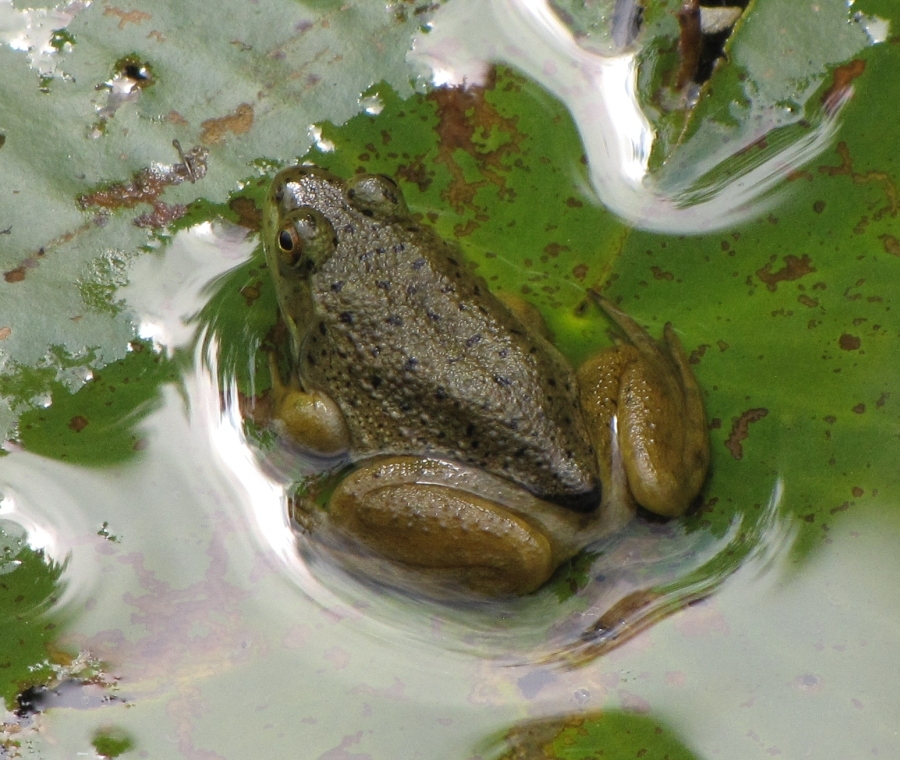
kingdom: Animalia
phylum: Chordata
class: Amphibia
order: Anura
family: Ranidae
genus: Lithobates
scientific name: Lithobates catesbeianus
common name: American bullfrog
